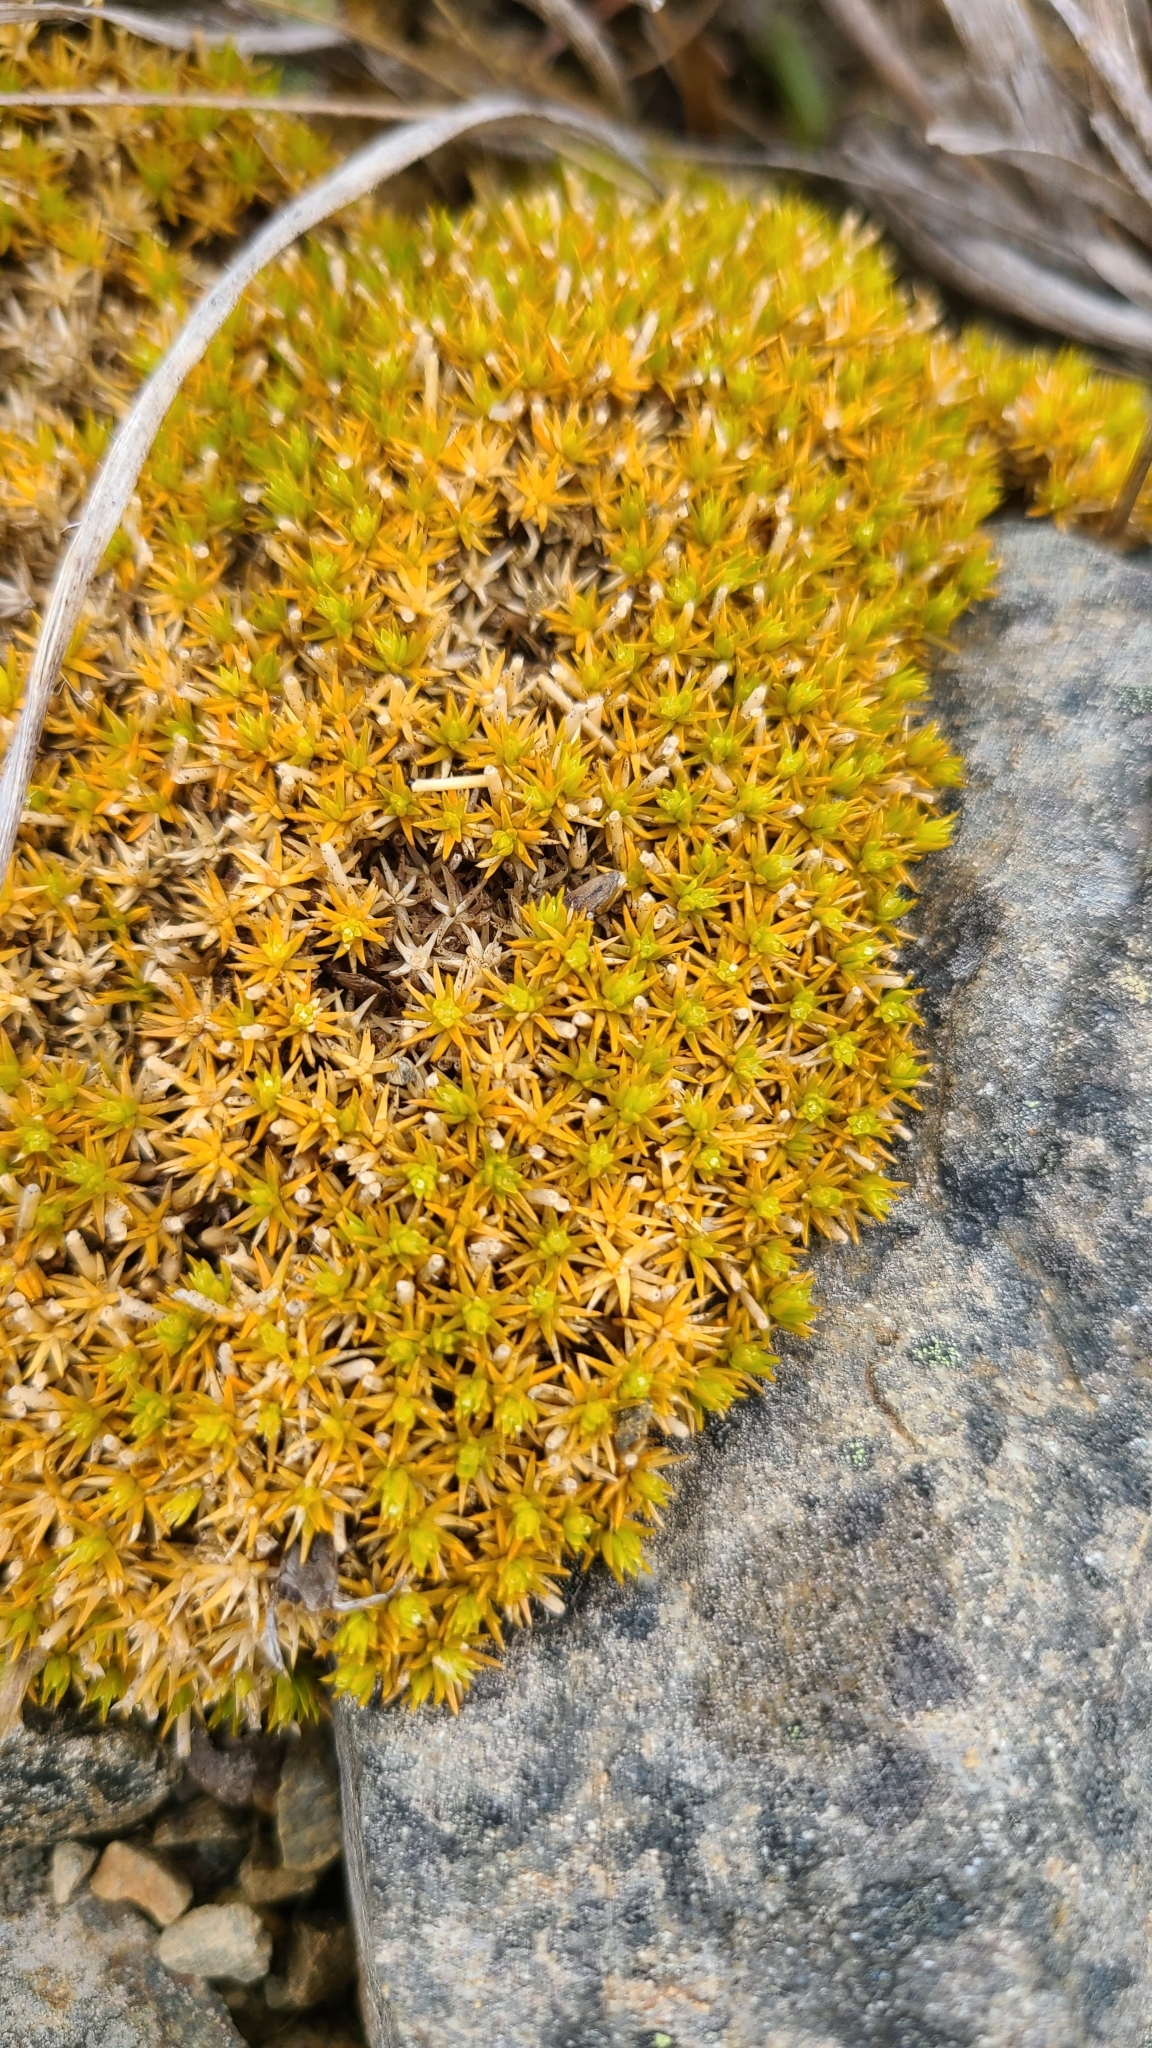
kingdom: Plantae
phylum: Tracheophyta
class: Magnoliopsida
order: Caryophyllales
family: Caryophyllaceae
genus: Scleranthus
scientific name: Scleranthus uniflorus
